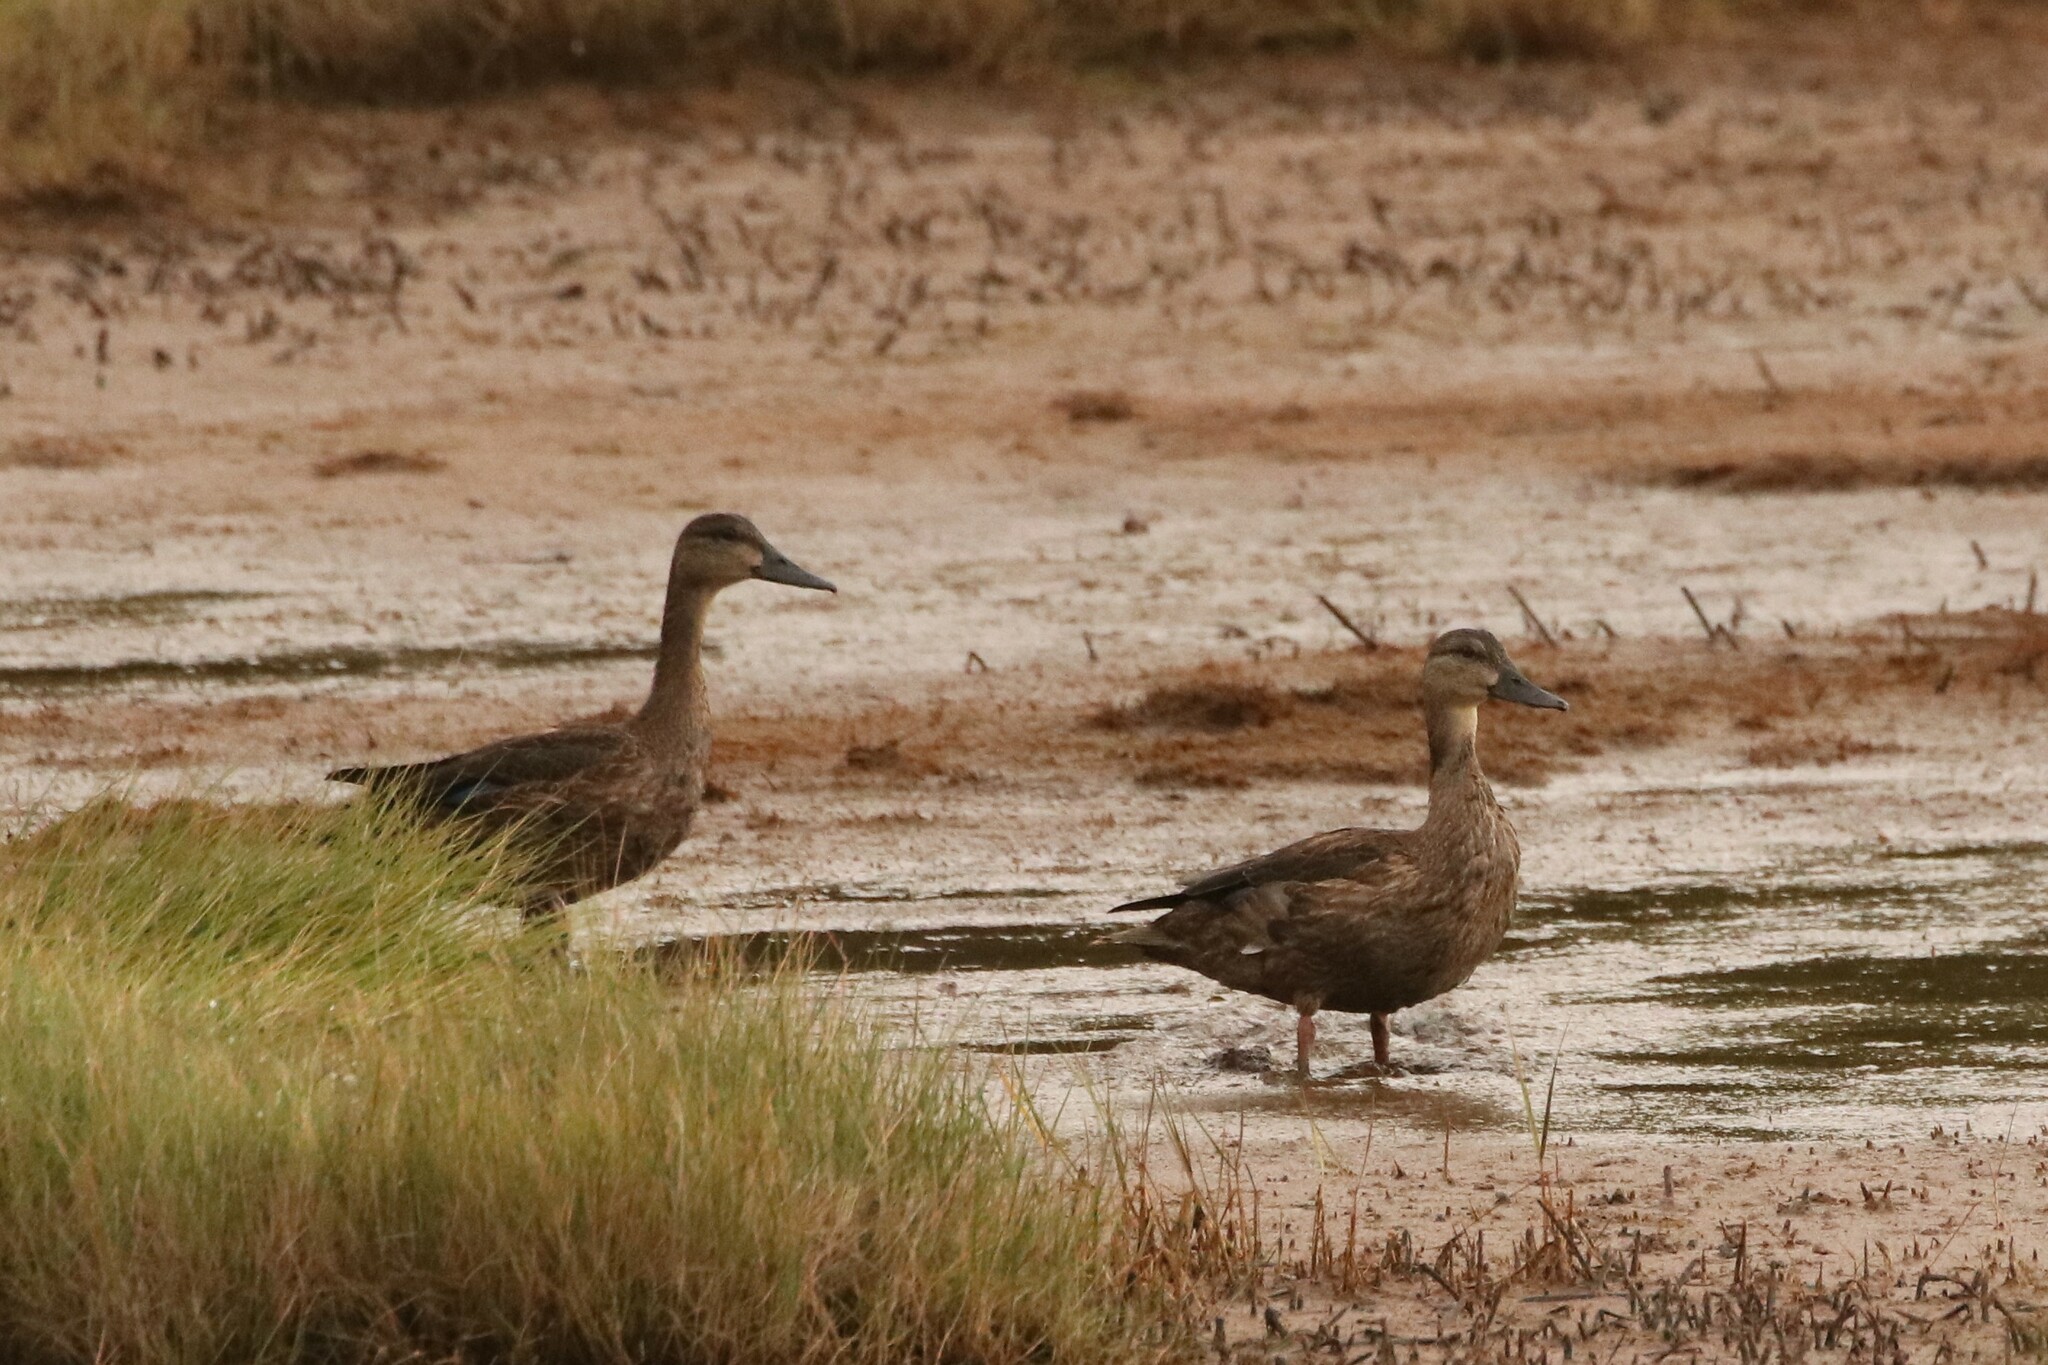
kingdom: Animalia
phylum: Chordata
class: Aves
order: Anseriformes
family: Anatidae
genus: Anas
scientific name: Anas rubripes
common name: American black duck
